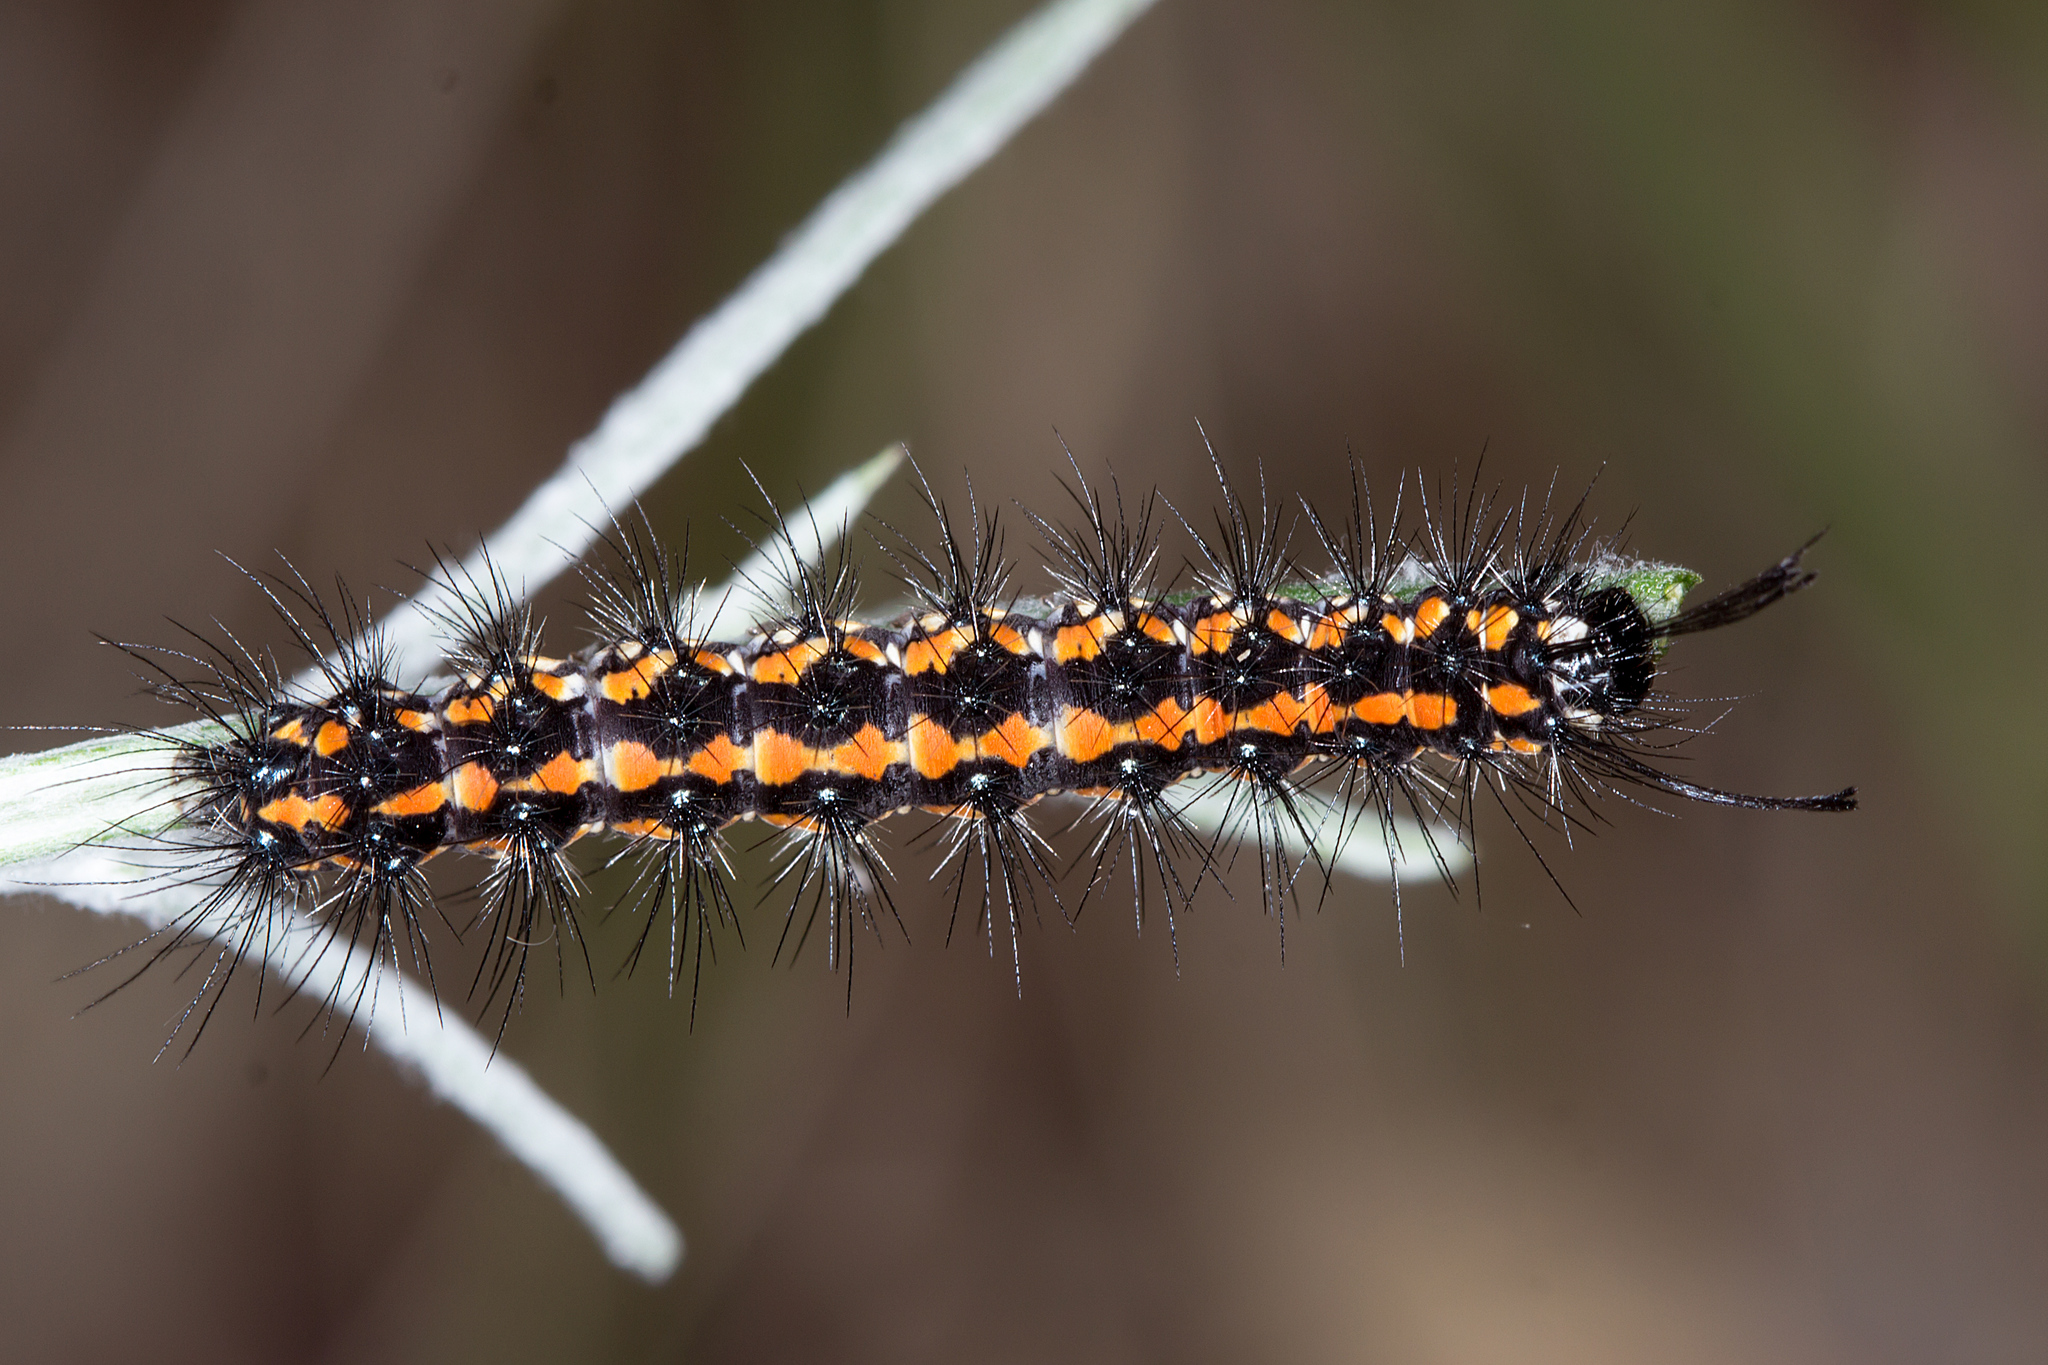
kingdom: Animalia
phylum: Arthropoda
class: Insecta
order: Lepidoptera
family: Erebidae
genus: Nyctemera
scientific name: Nyctemera amicus
